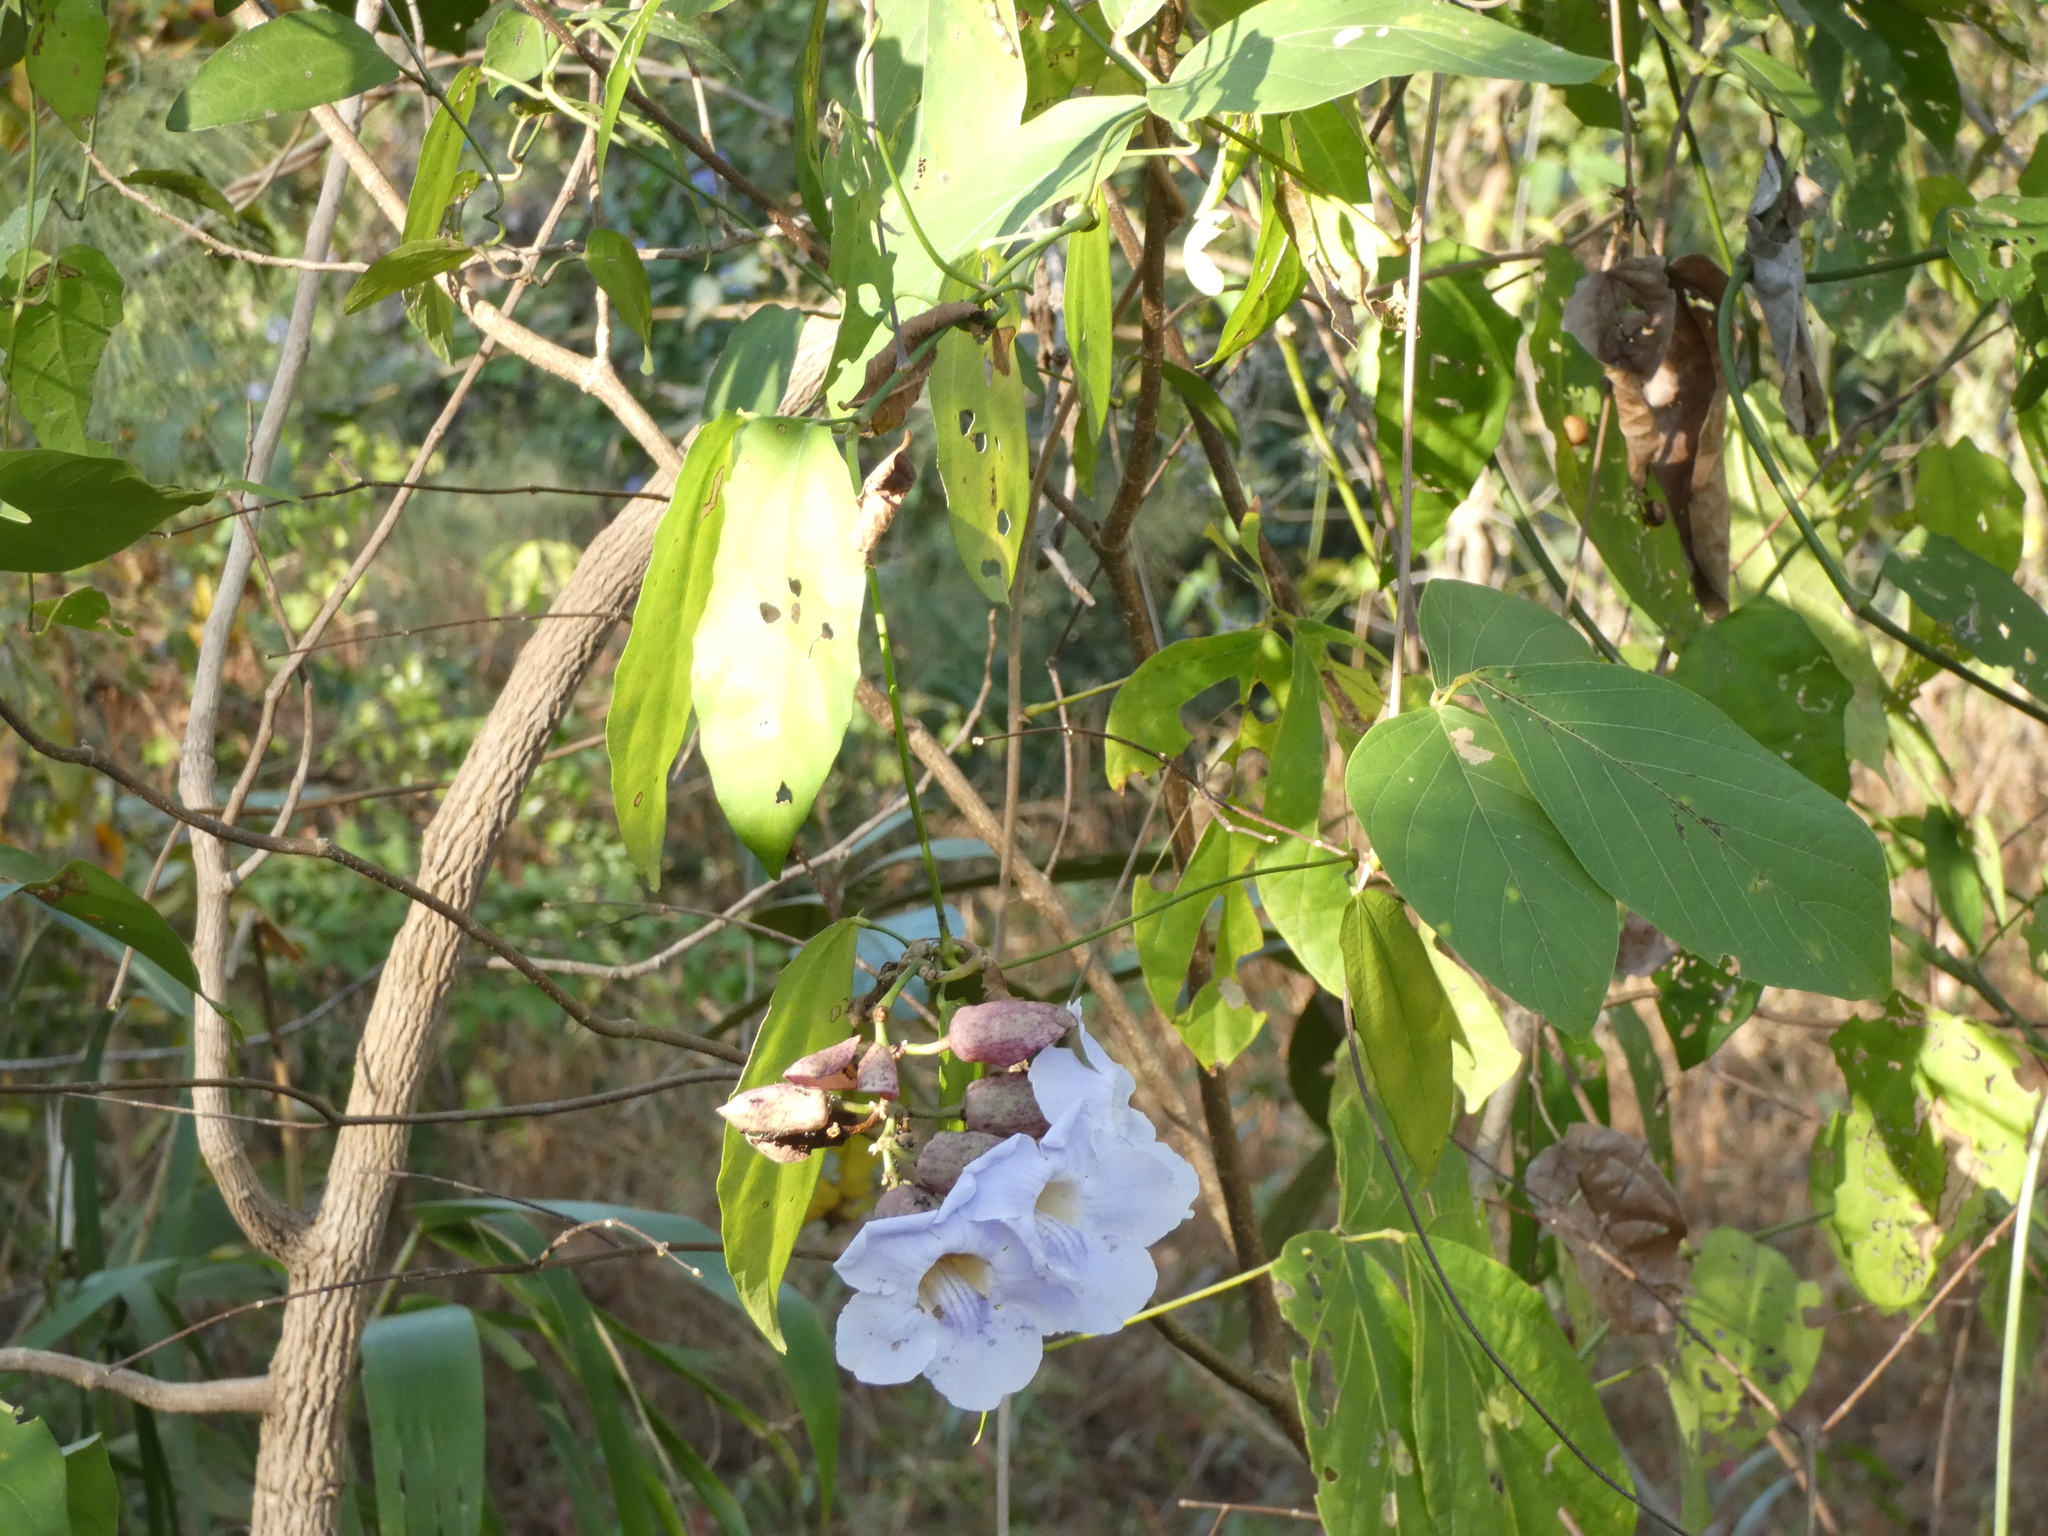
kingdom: Plantae
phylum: Tracheophyta
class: Magnoliopsida
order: Lamiales
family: Acanthaceae
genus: Thunbergia
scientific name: Thunbergia laurifolia
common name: Laurel-leaved thunbergia
